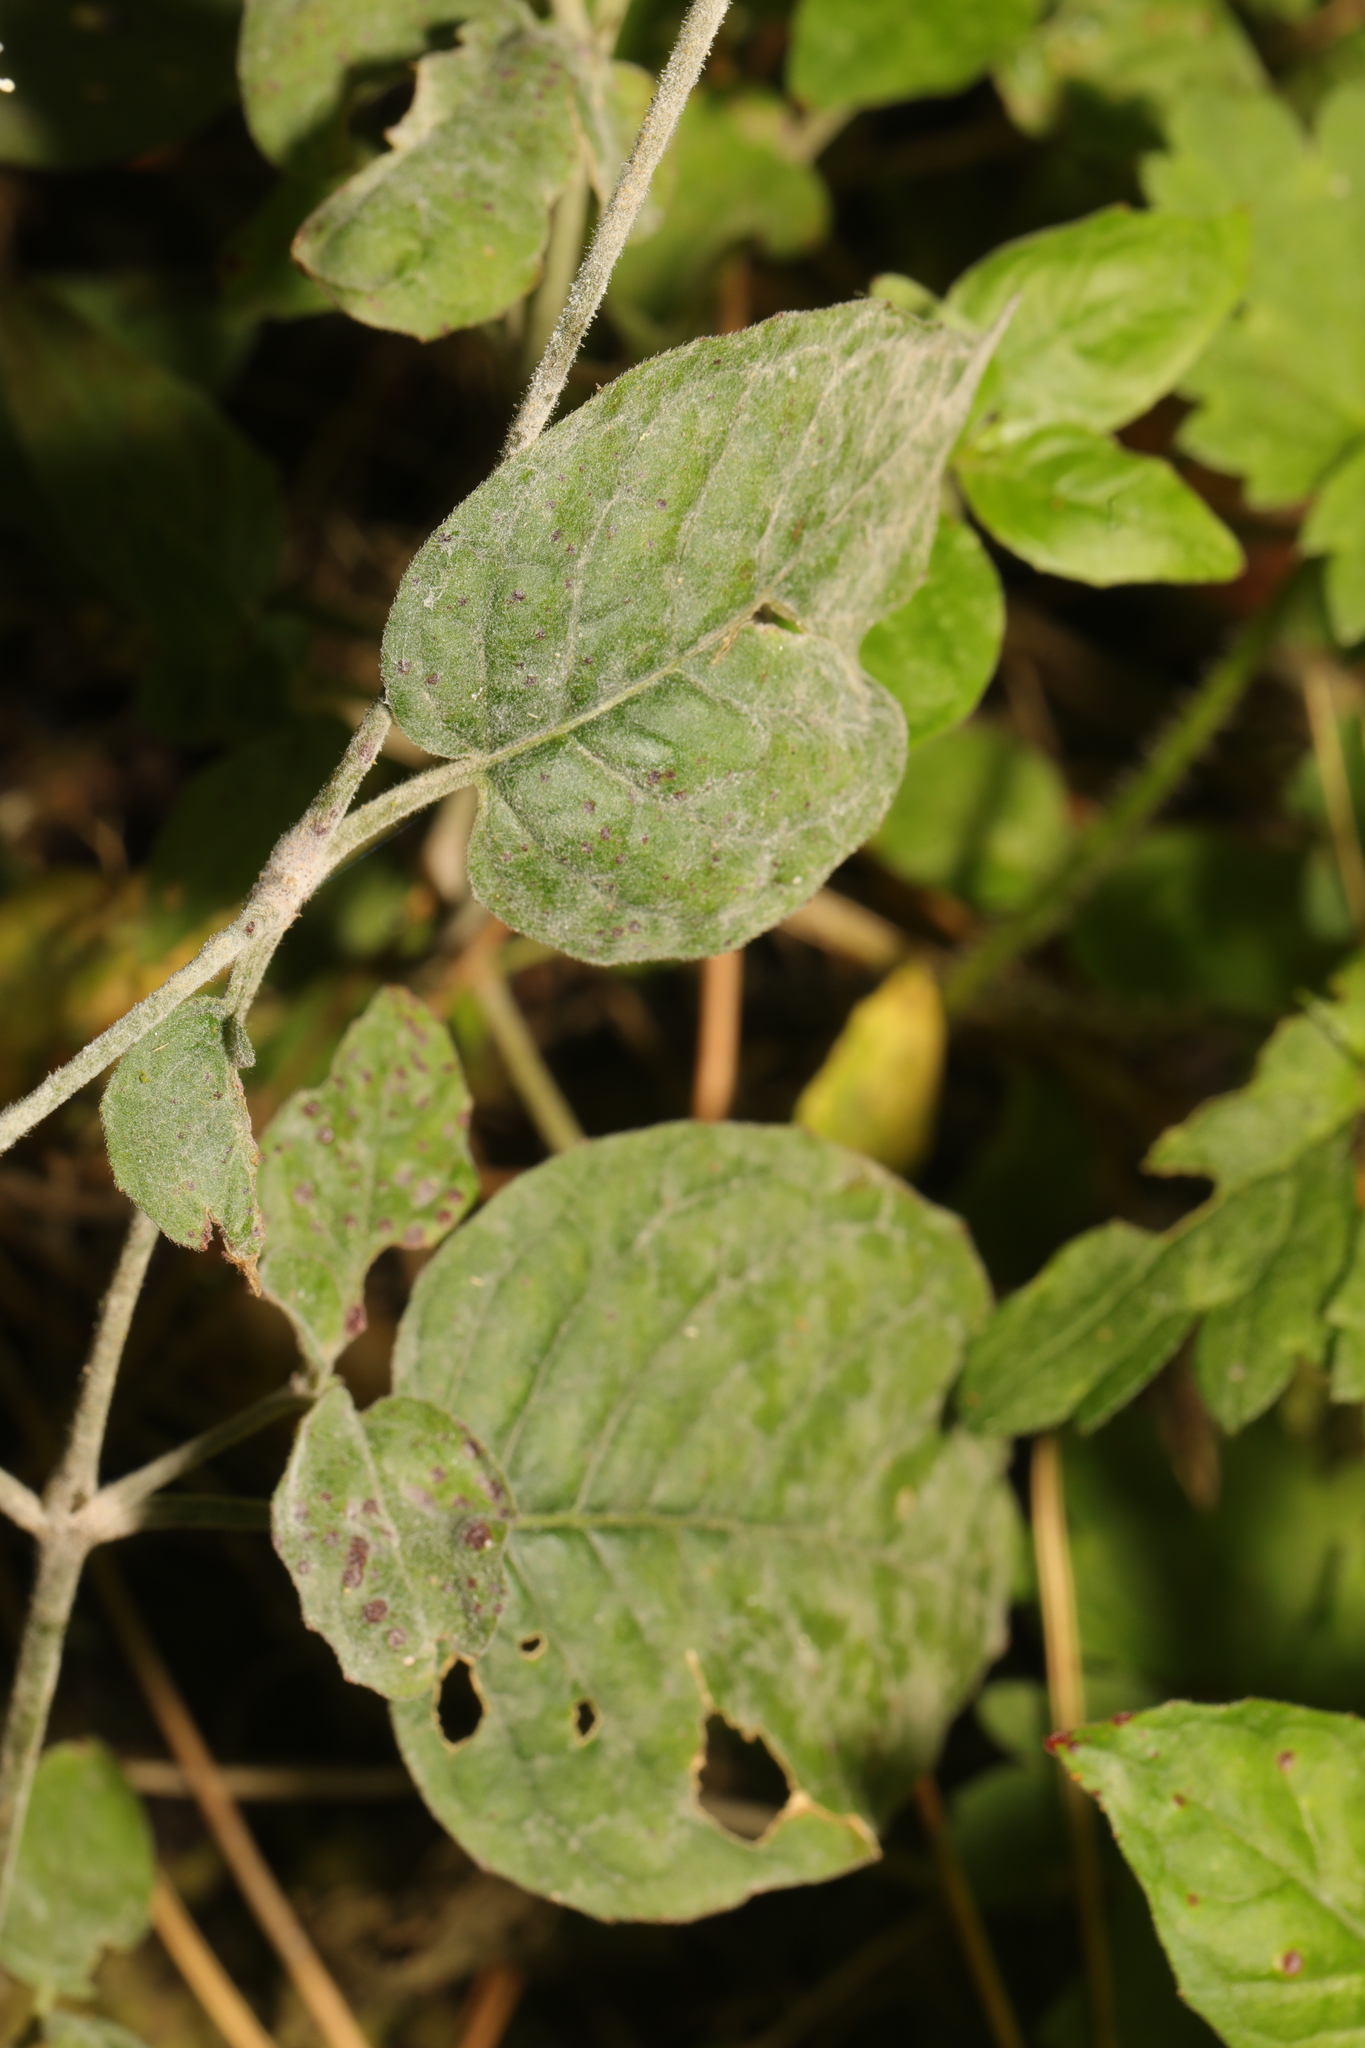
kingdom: Fungi
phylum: Ascomycota
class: Leotiomycetes
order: Helotiales
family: Erysiphaceae
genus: Erysiphe
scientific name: Erysiphe circaeae
